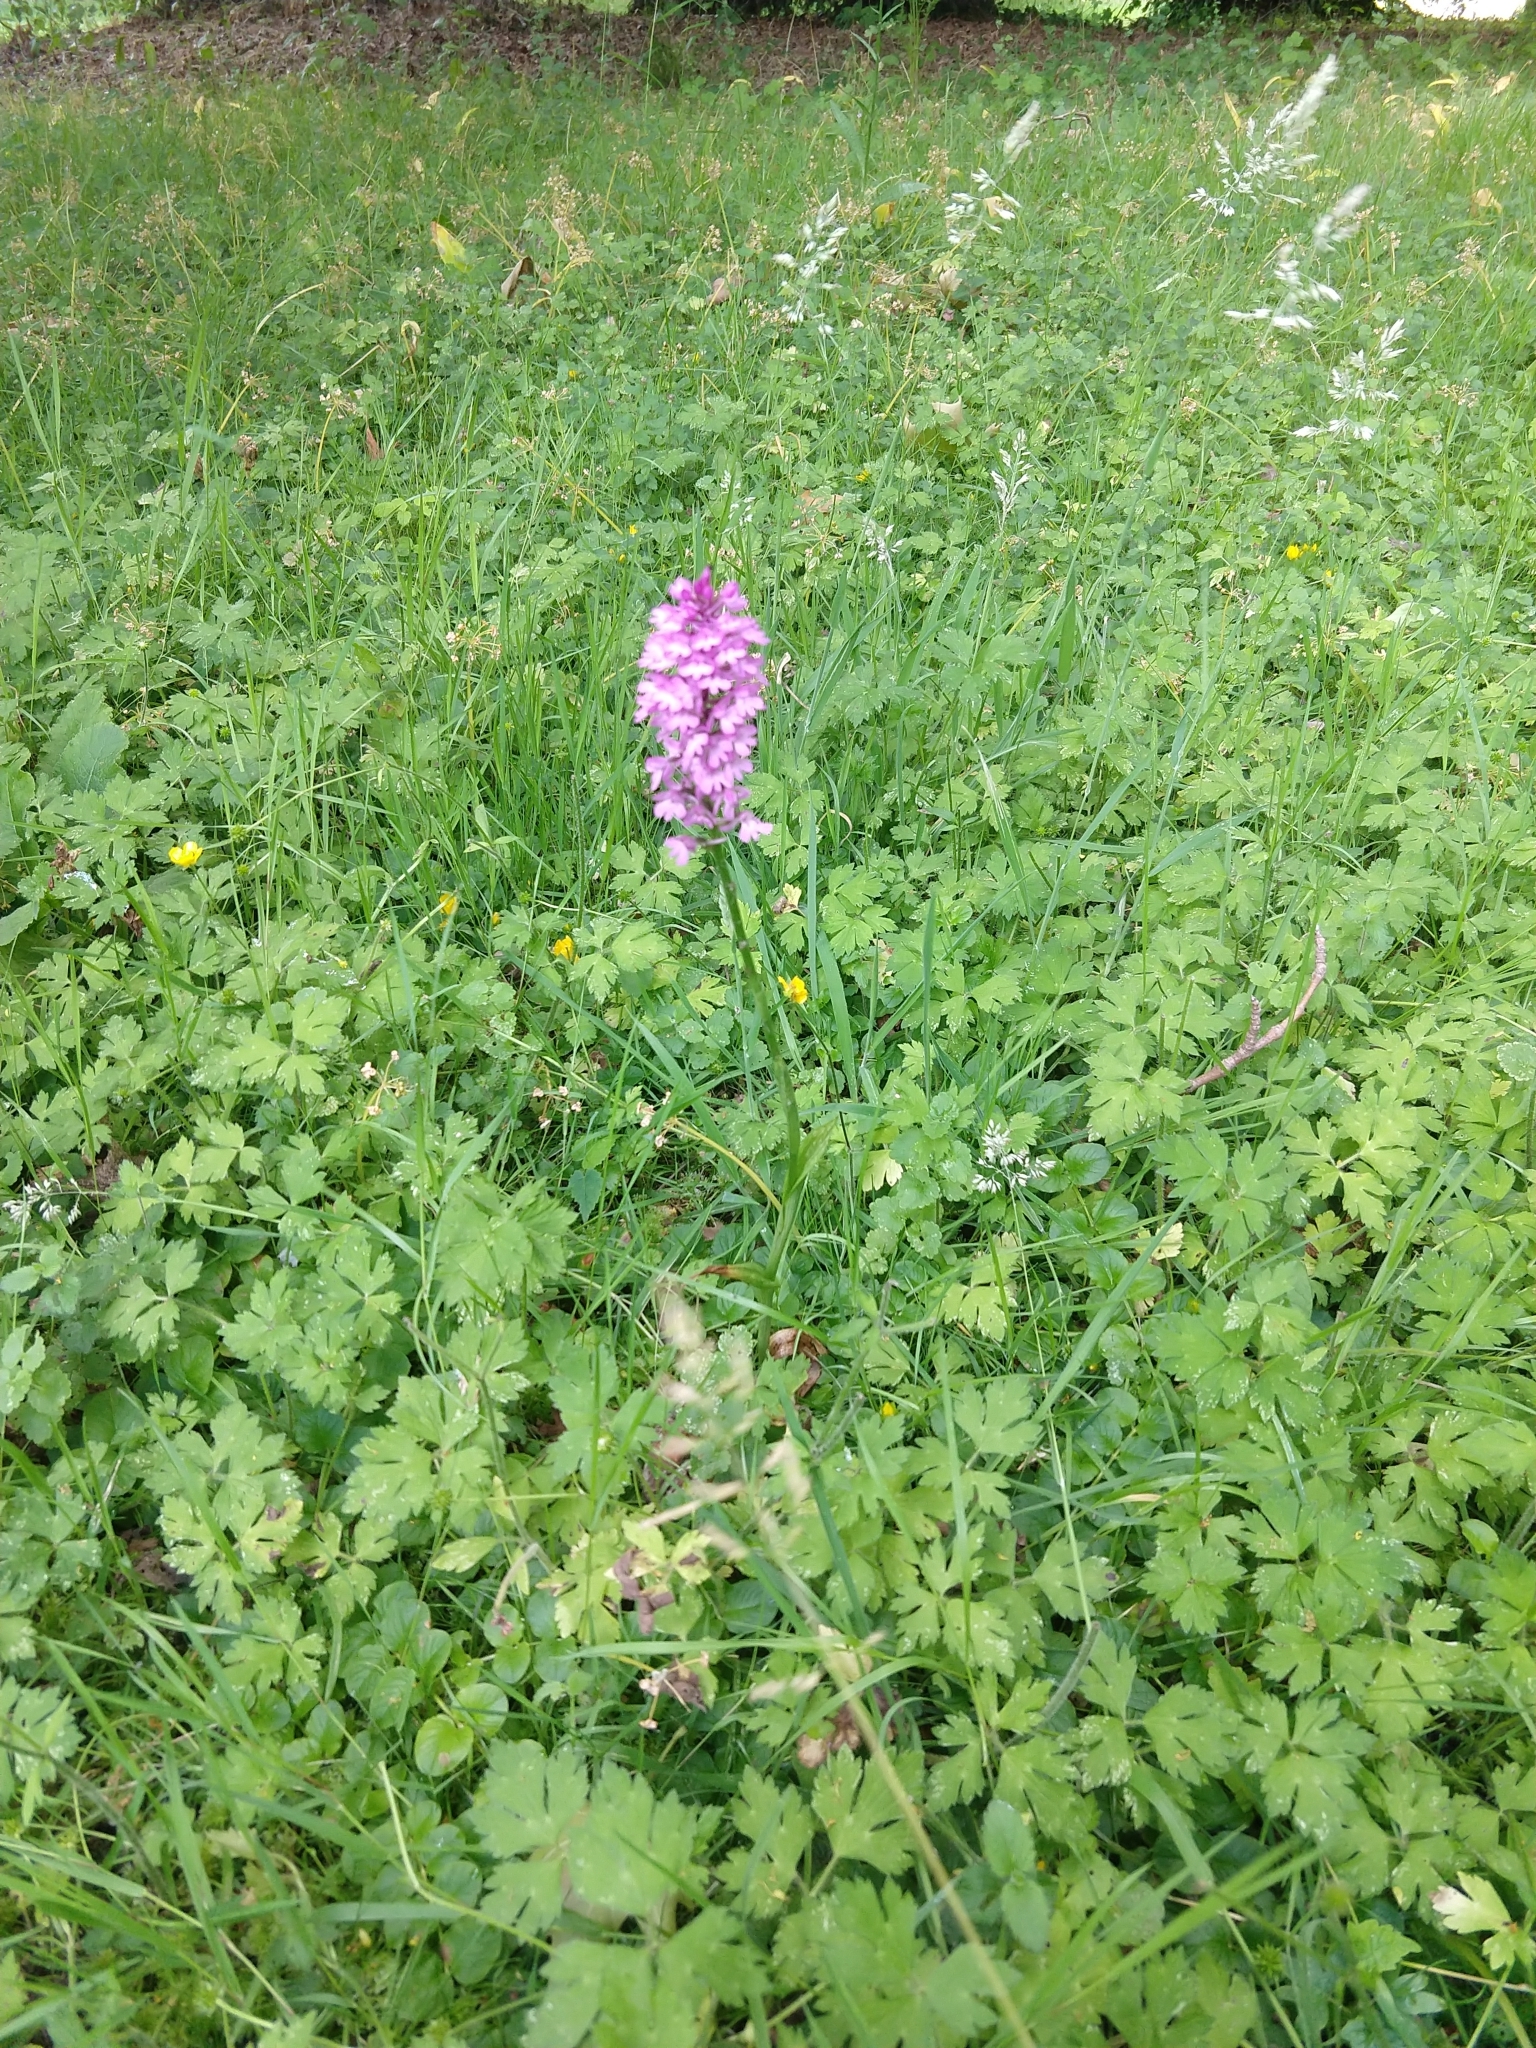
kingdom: Plantae
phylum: Tracheophyta
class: Liliopsida
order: Asparagales
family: Orchidaceae
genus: Anacamptis
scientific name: Anacamptis pyramidalis
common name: Pyramidal orchid
